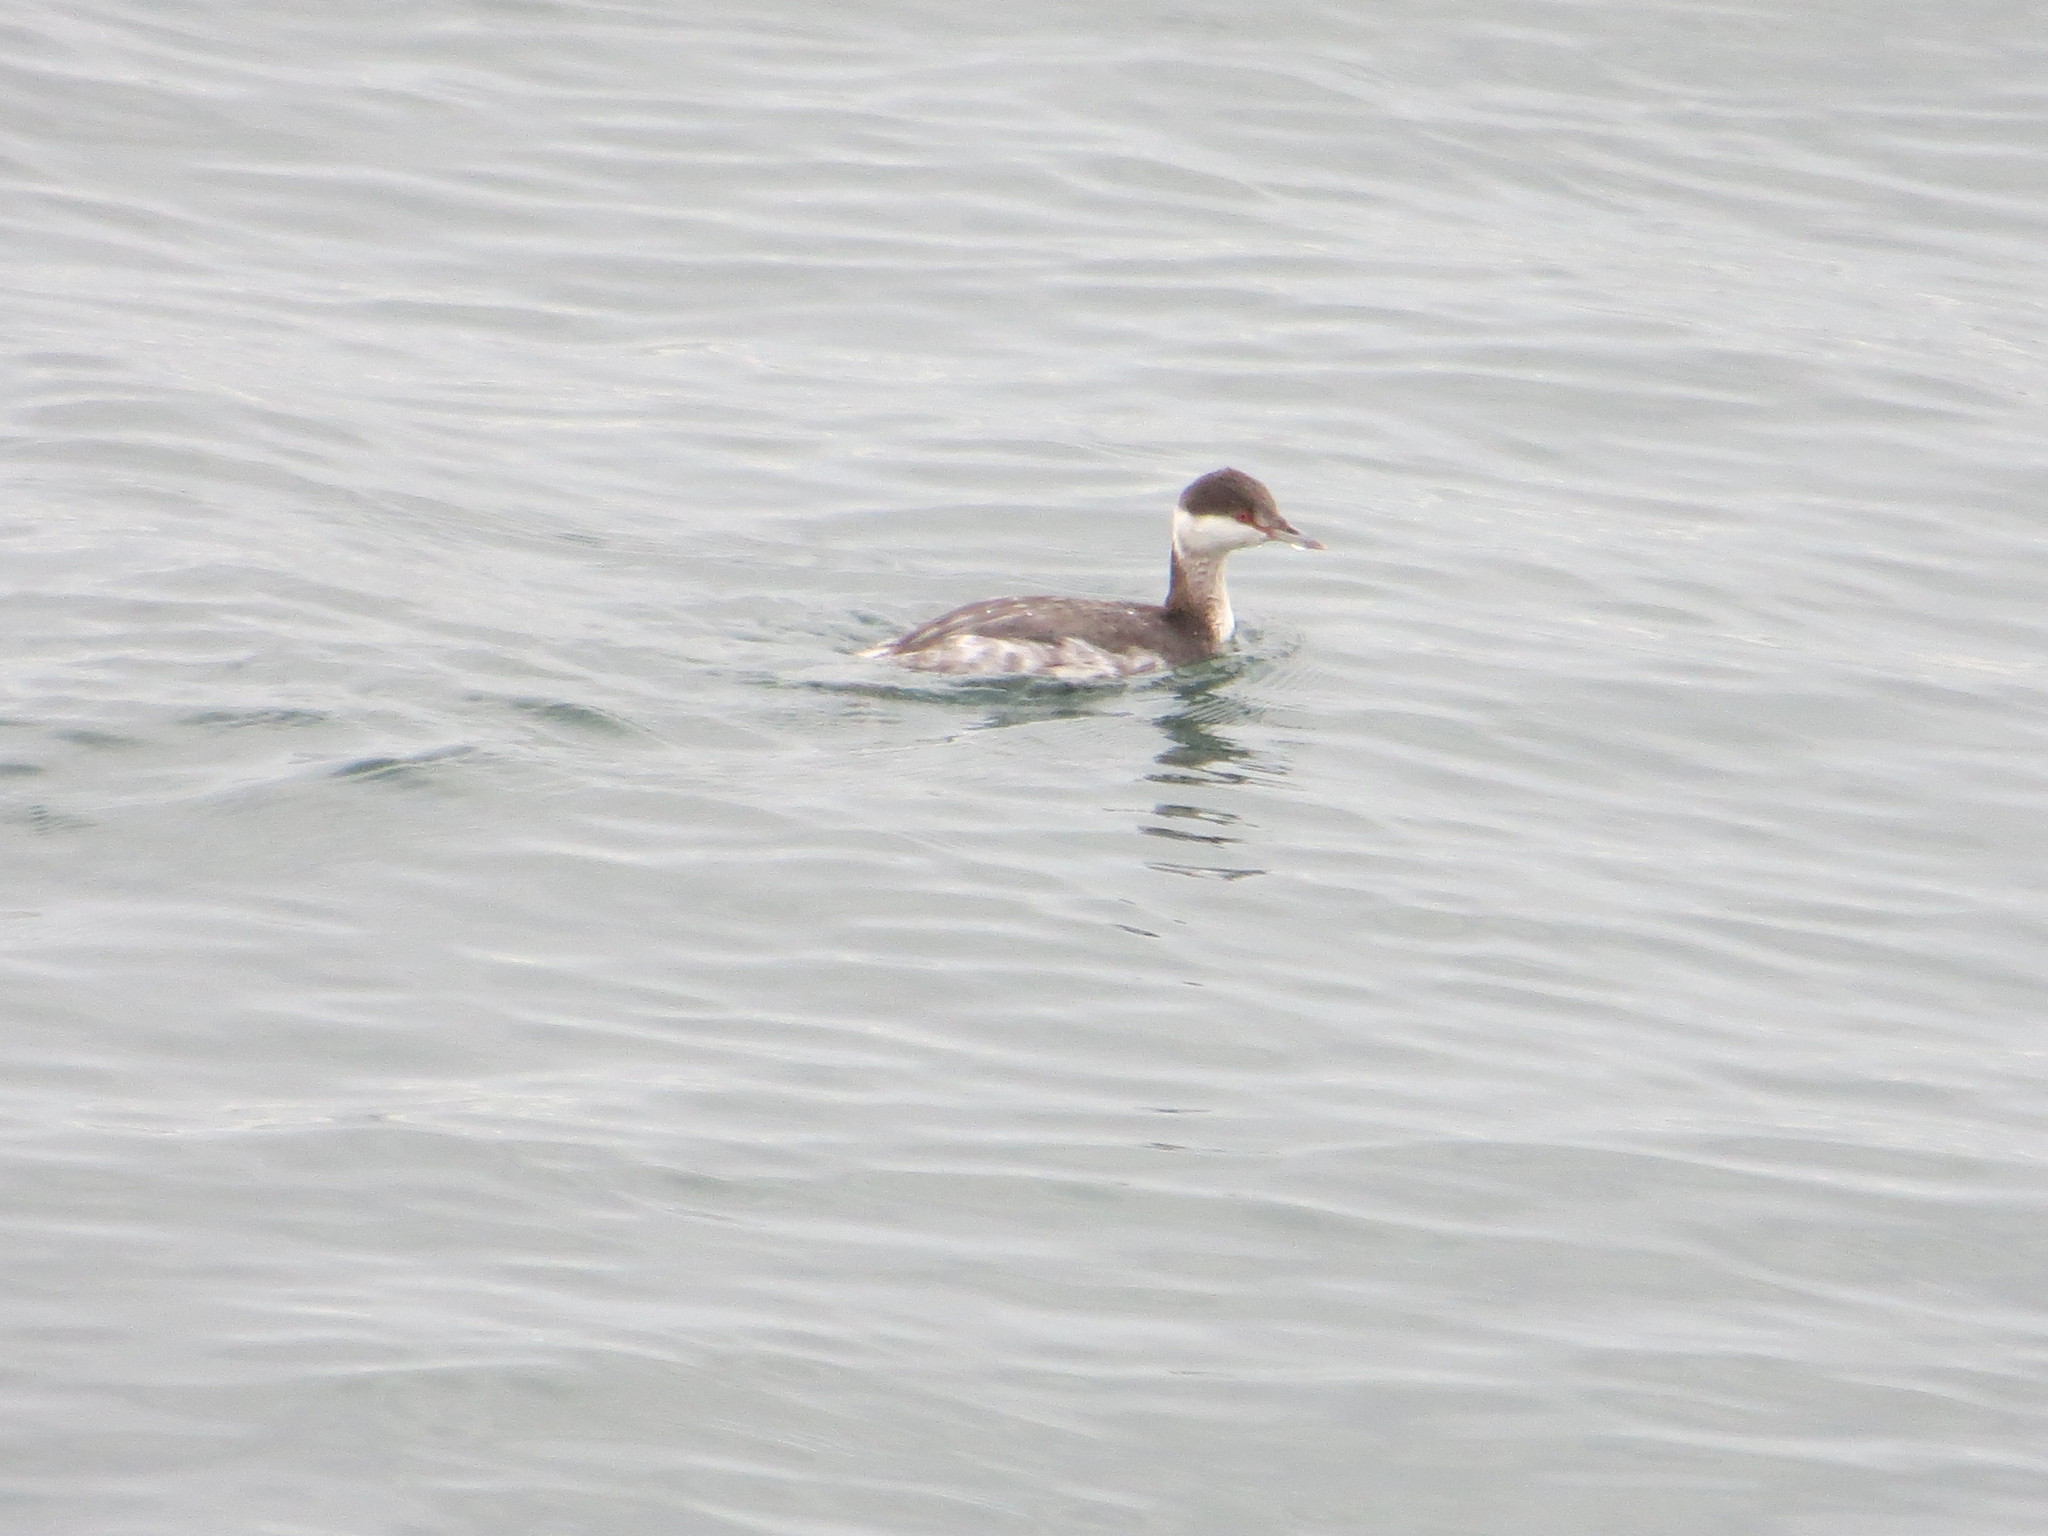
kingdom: Animalia
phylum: Chordata
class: Aves
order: Podicipediformes
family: Podicipedidae
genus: Podiceps
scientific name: Podiceps auritus
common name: Horned grebe
